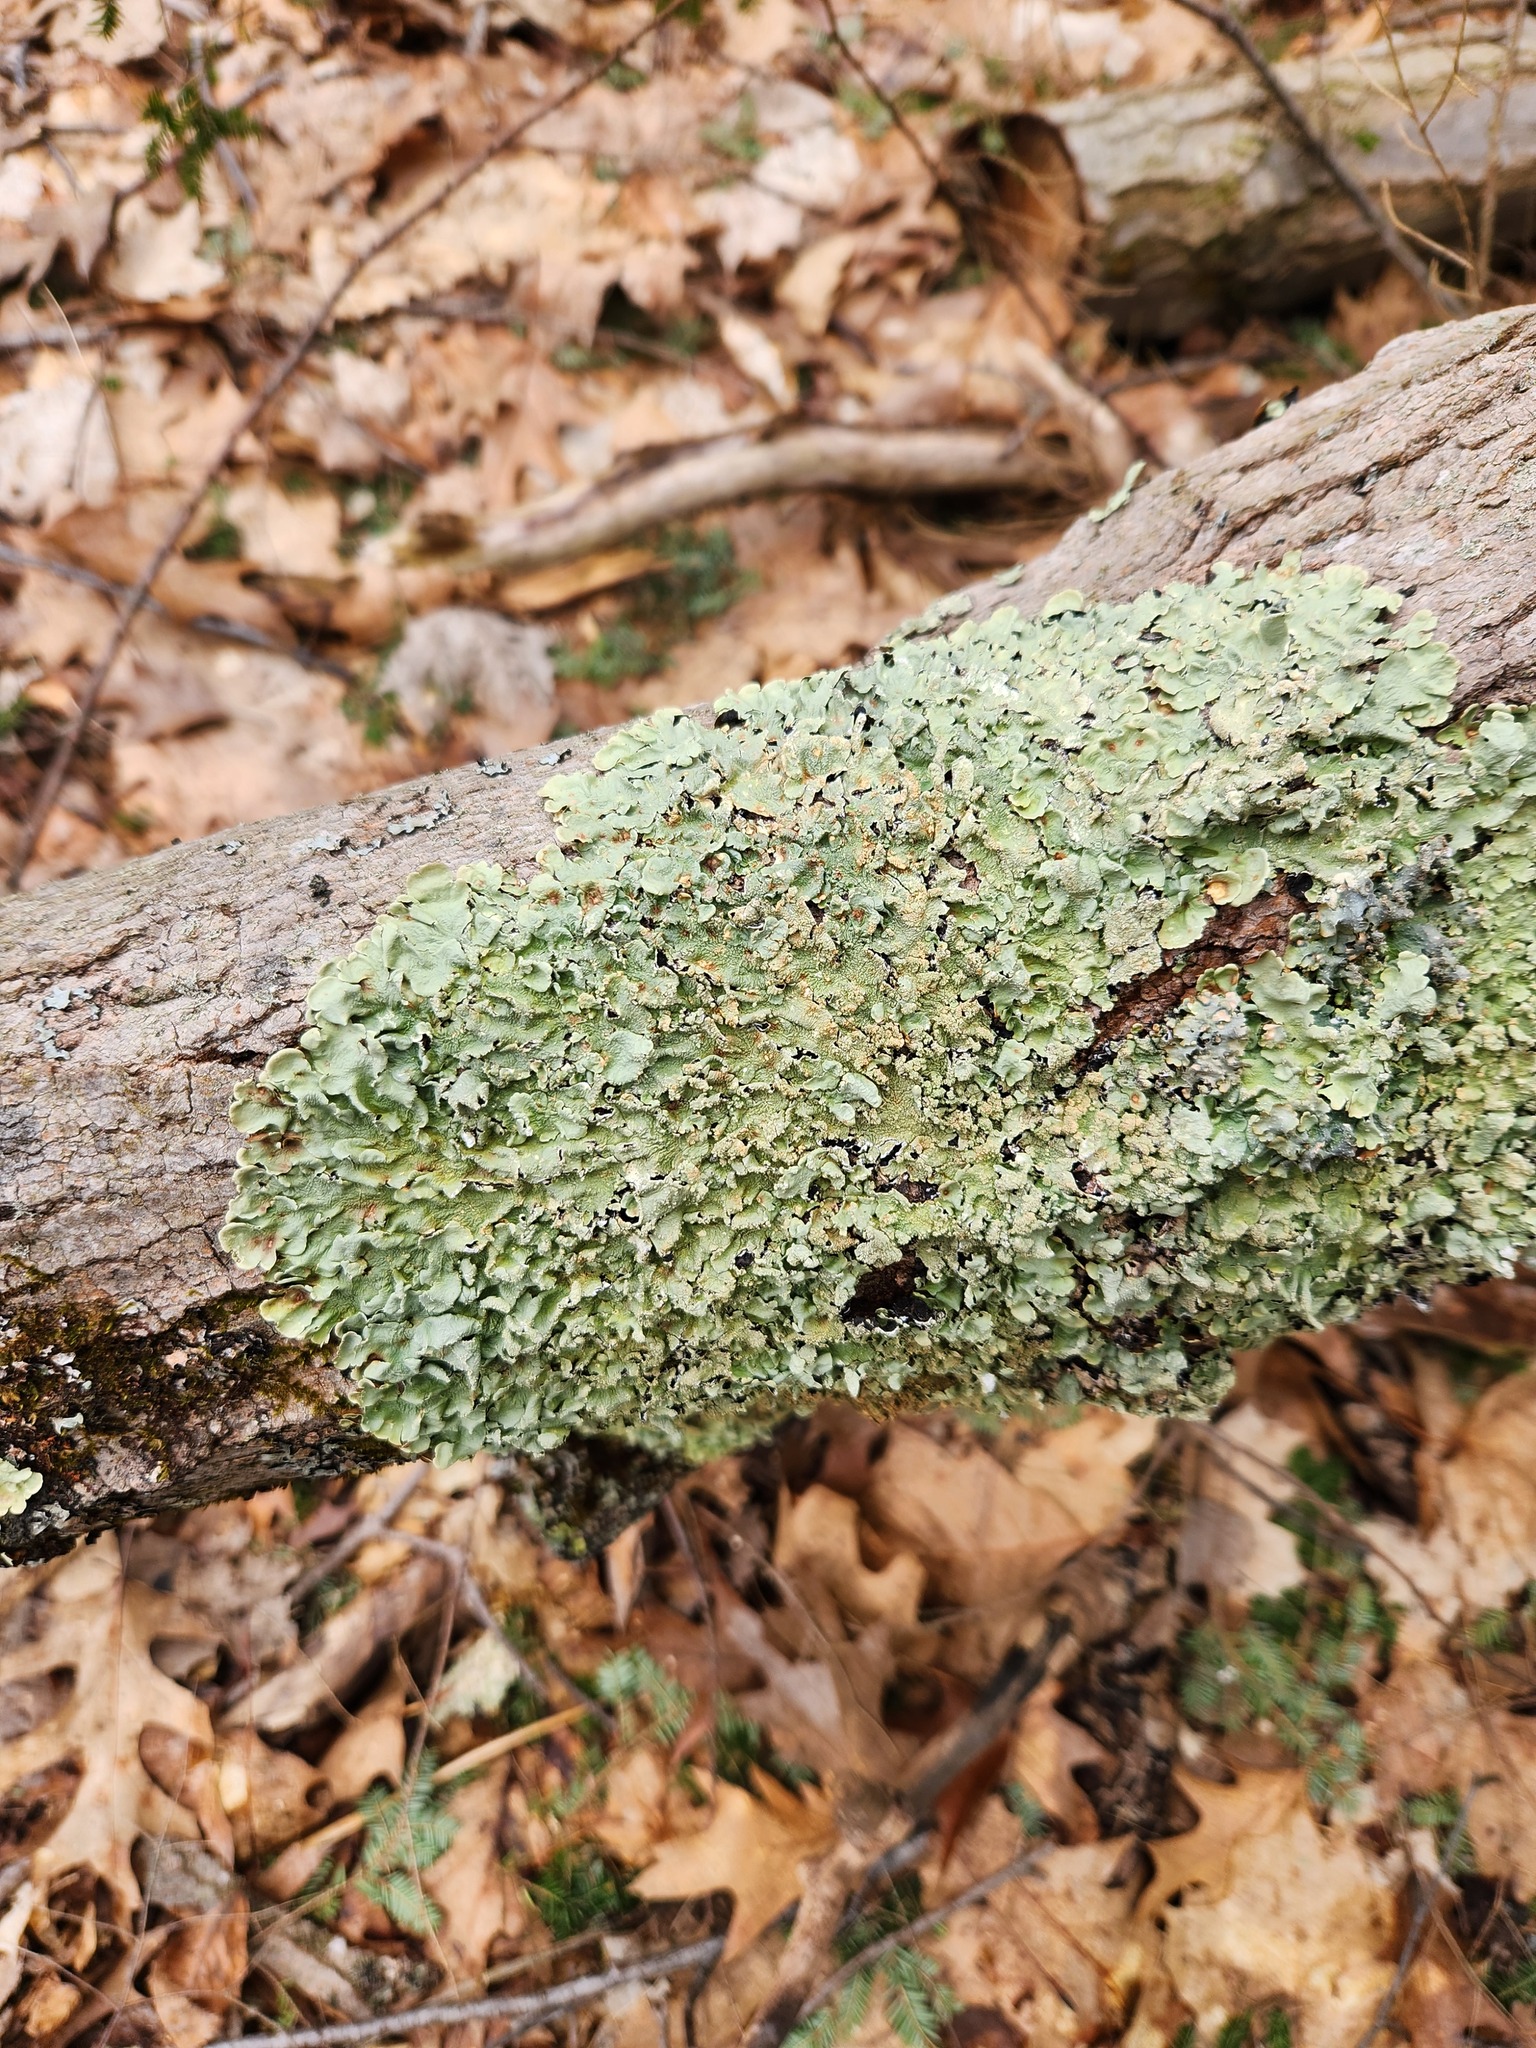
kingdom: Fungi
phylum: Ascomycota
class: Lecanoromycetes
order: Lecanorales
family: Parmeliaceae
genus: Flavoparmelia
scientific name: Flavoparmelia caperata
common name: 40-mile per hour lichen
